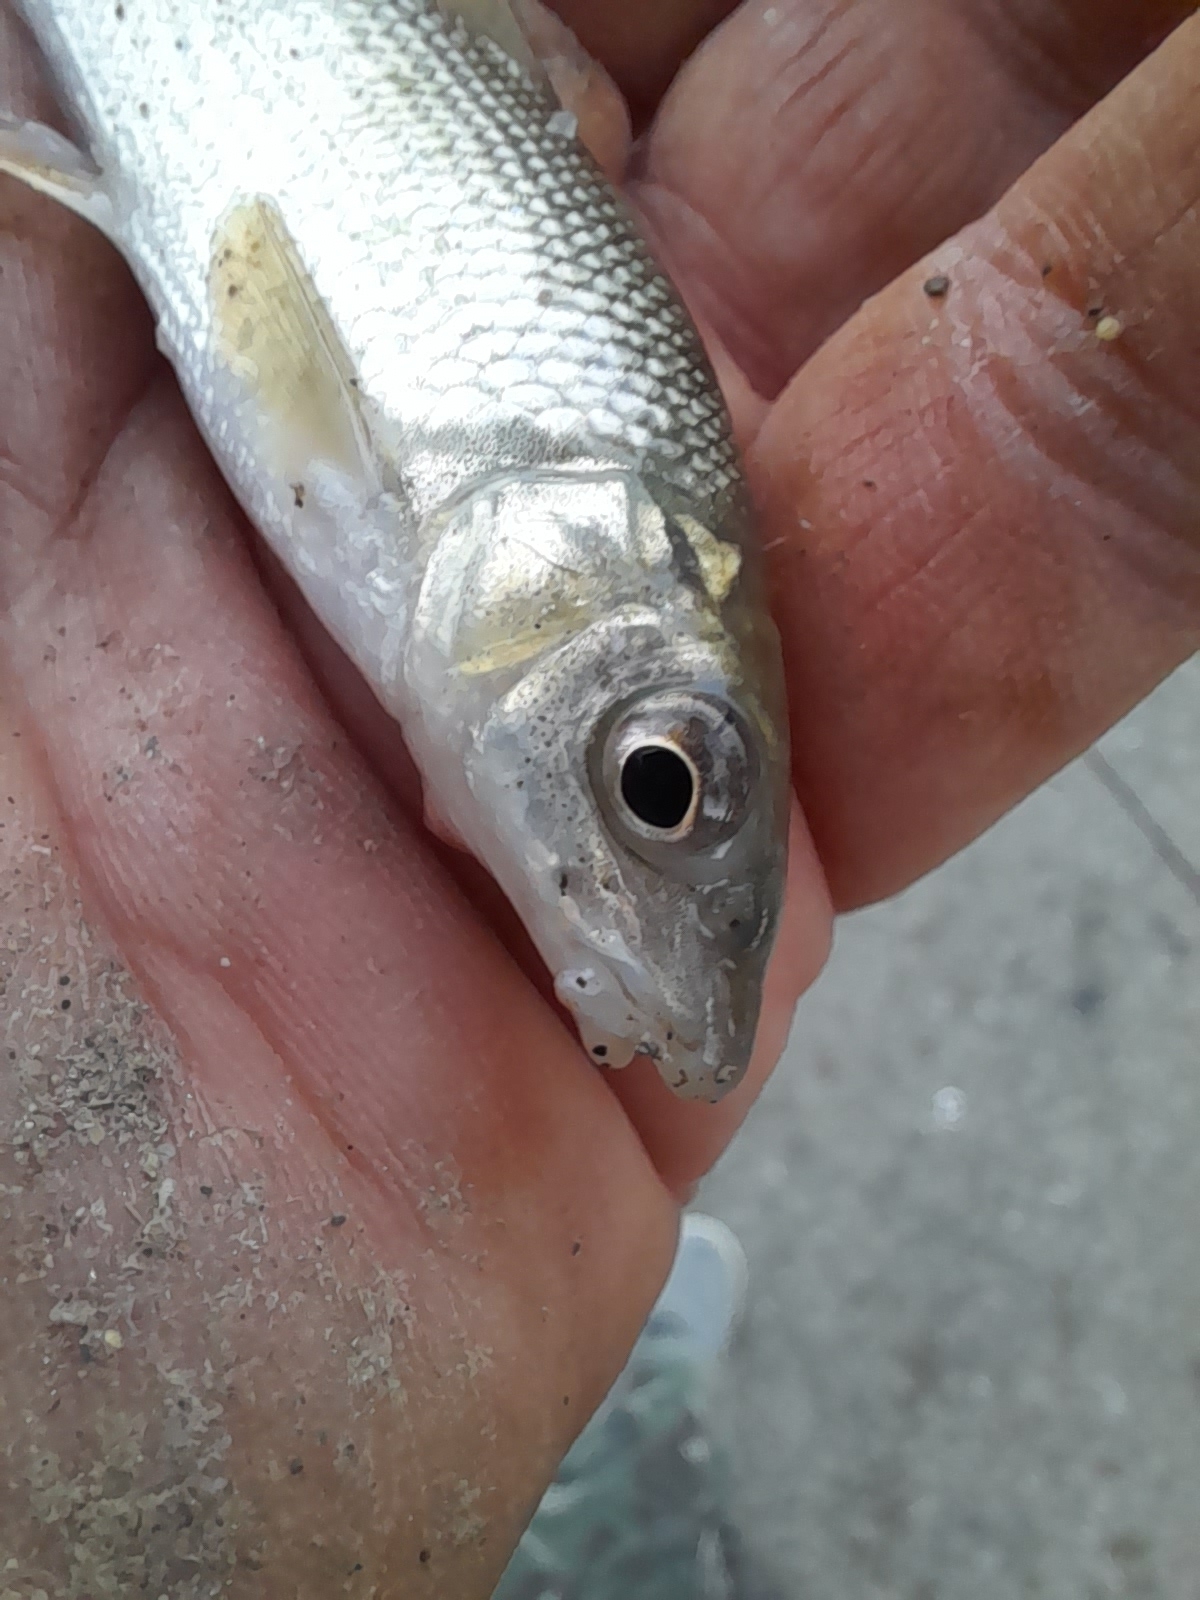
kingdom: Animalia
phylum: Chordata
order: Cypriniformes
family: Cyprinidae
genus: Luciobarbus
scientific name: Luciobarbus graellsii
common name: Ebro barbel
